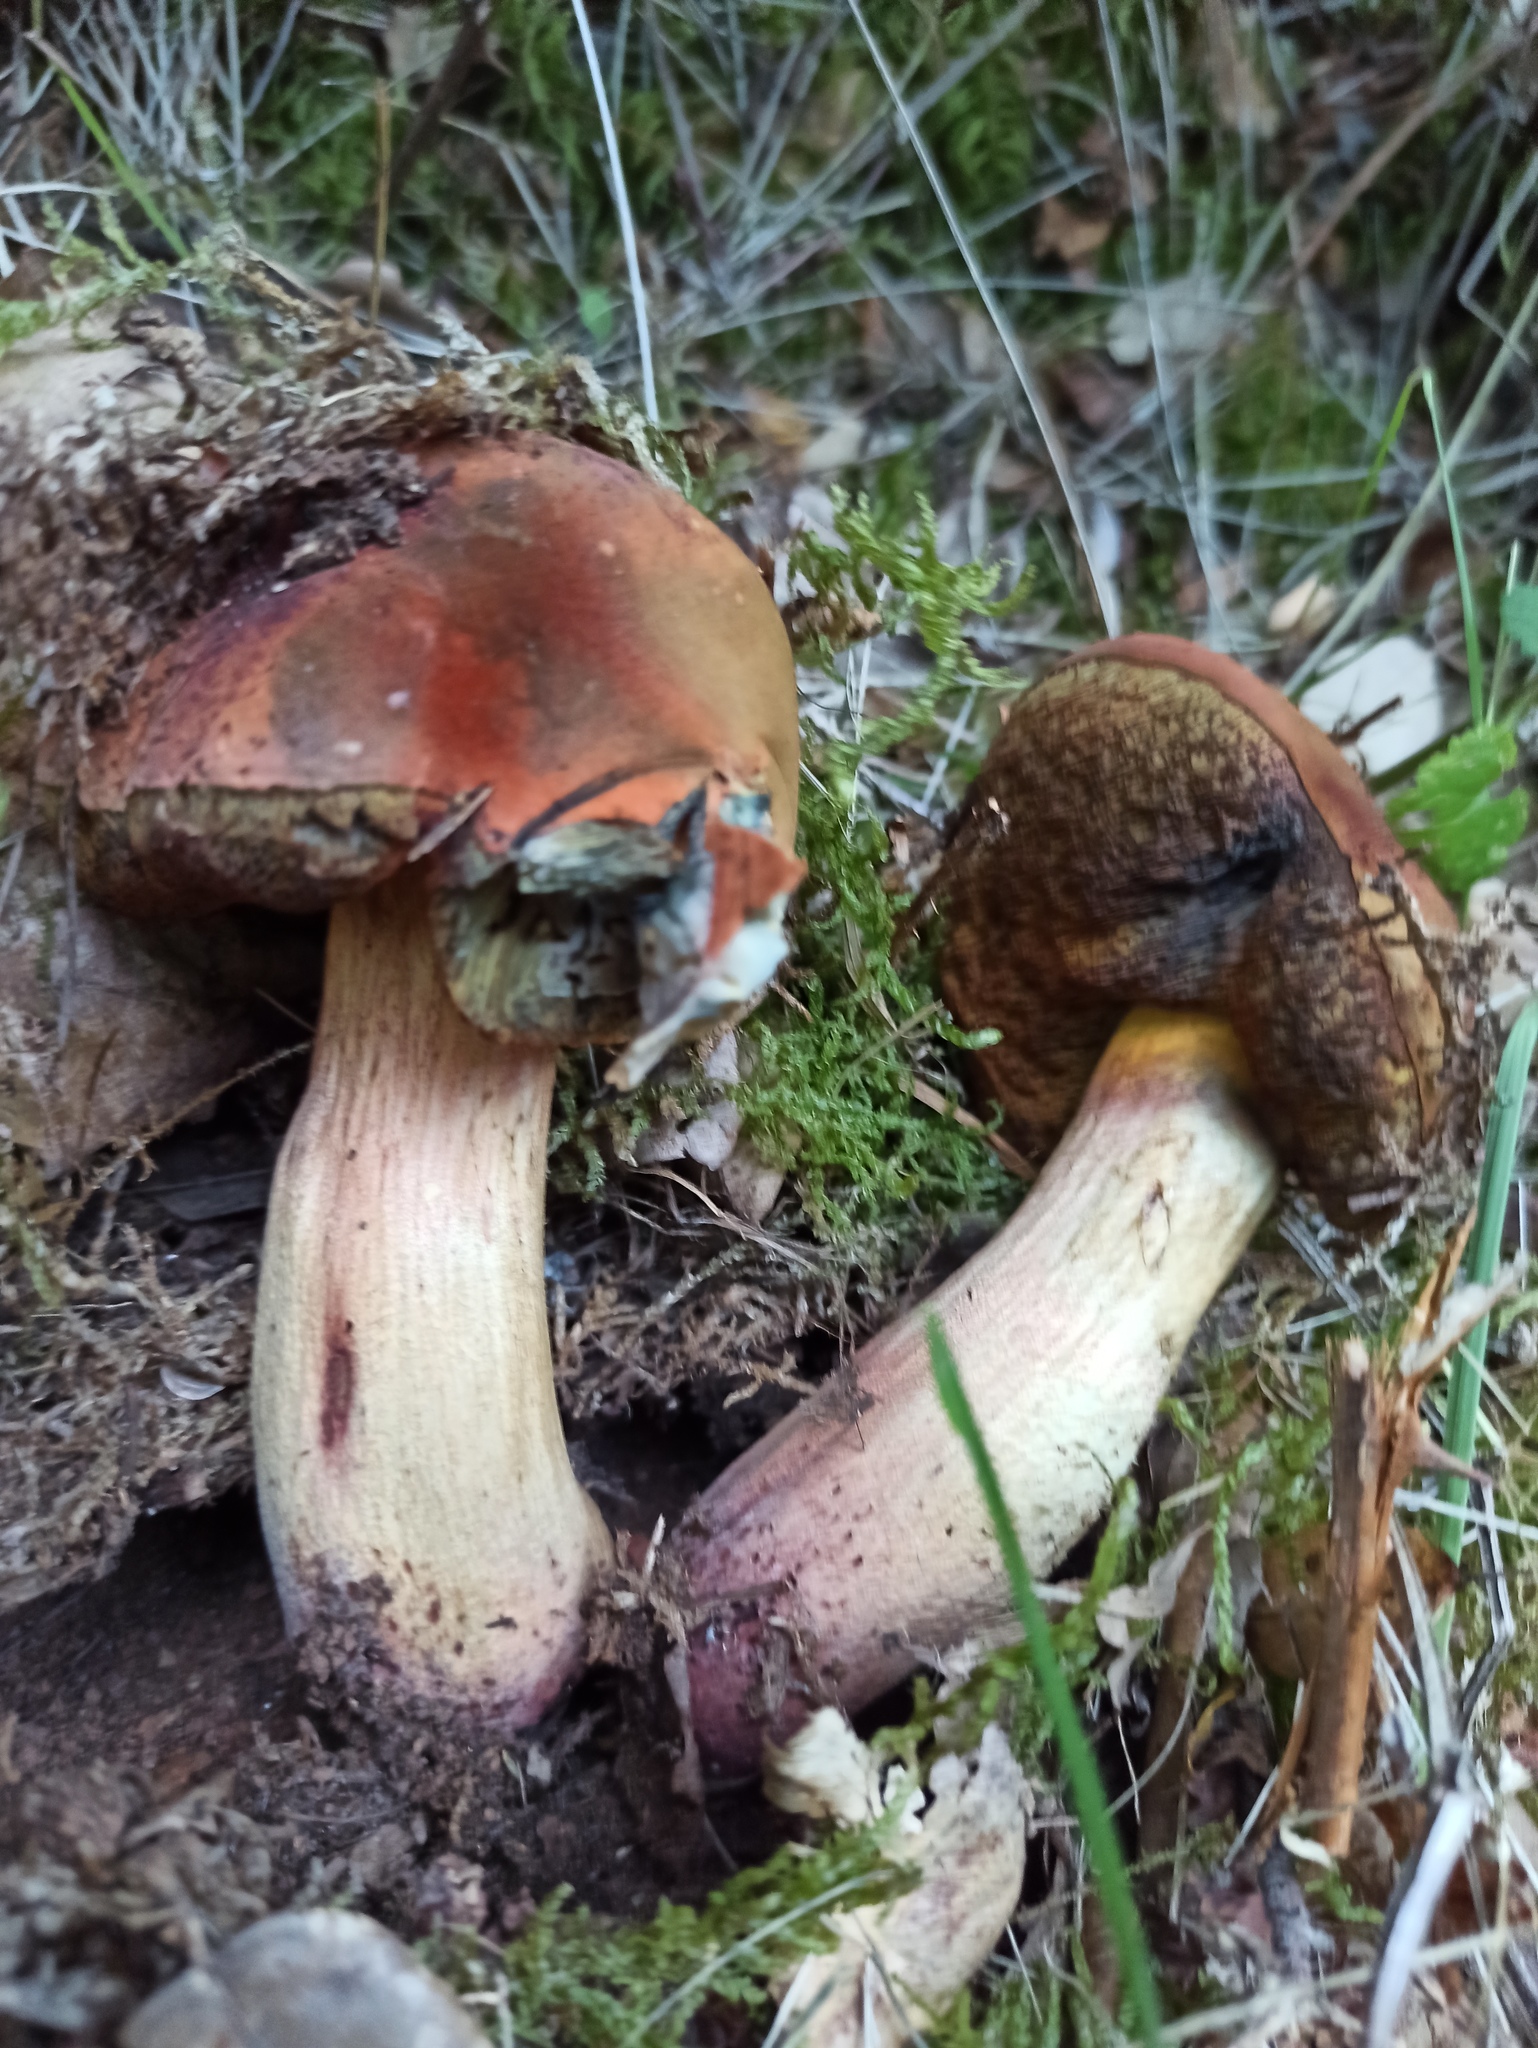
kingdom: Fungi
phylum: Basidiomycota
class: Agaricomycetes
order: Boletales
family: Boletaceae
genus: Suillellus
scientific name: Suillellus luridus
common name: Lurid bolete
